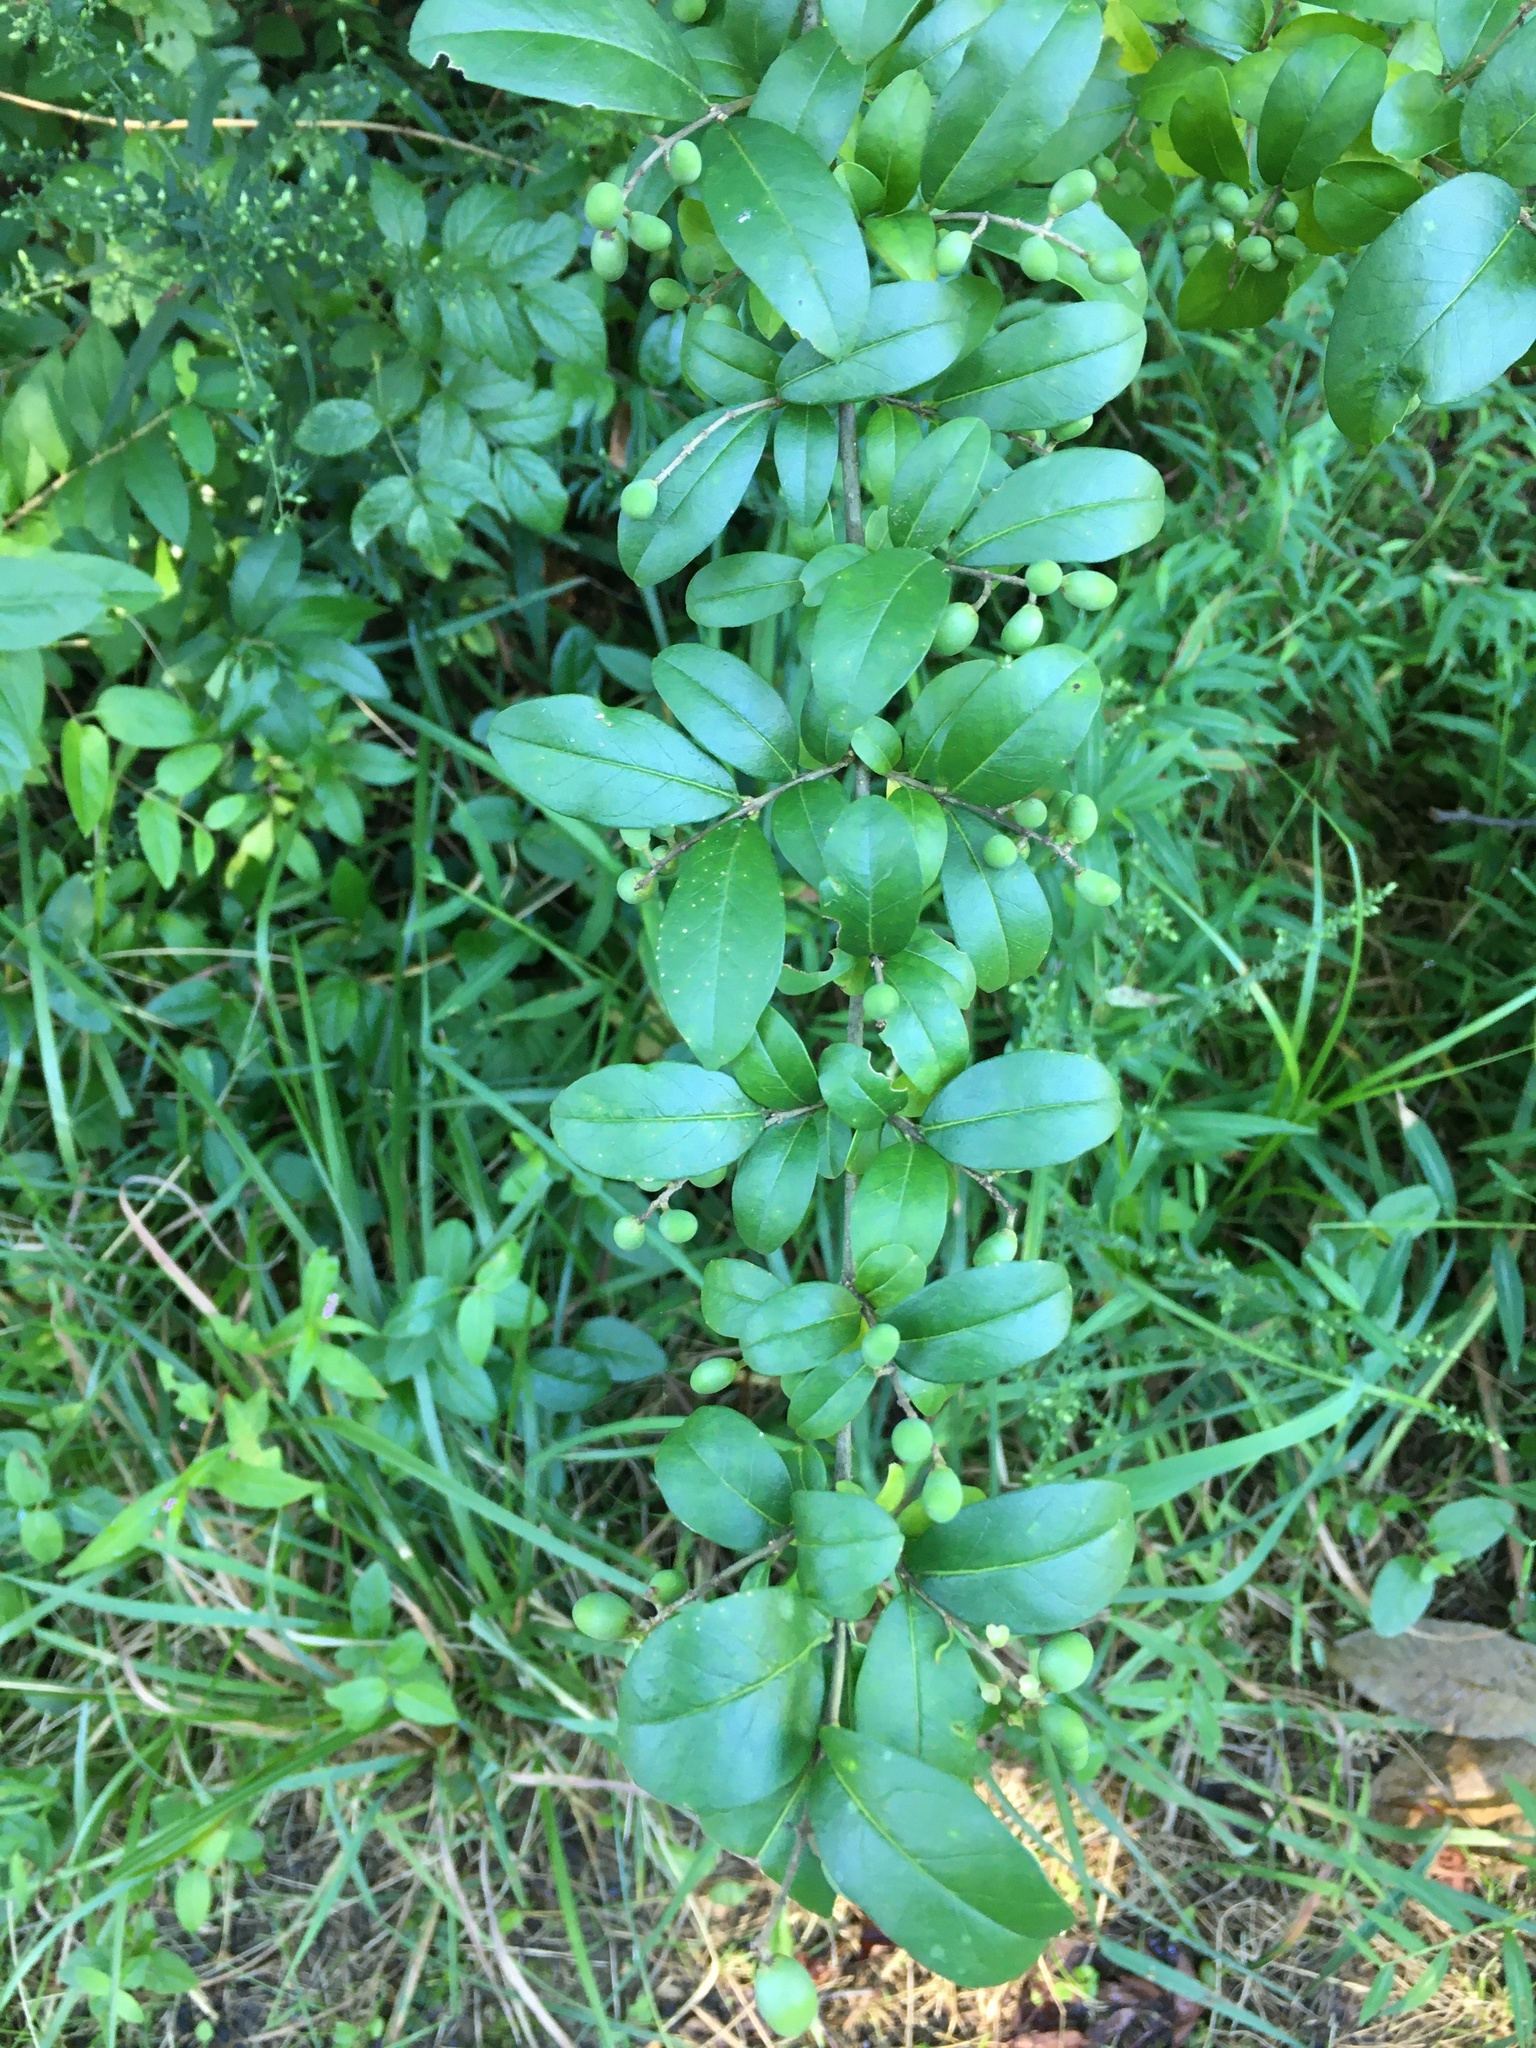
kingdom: Plantae
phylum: Tracheophyta
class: Magnoliopsida
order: Lamiales
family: Oleaceae
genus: Ligustrum
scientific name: Ligustrum obtusifolium
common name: Border privet
